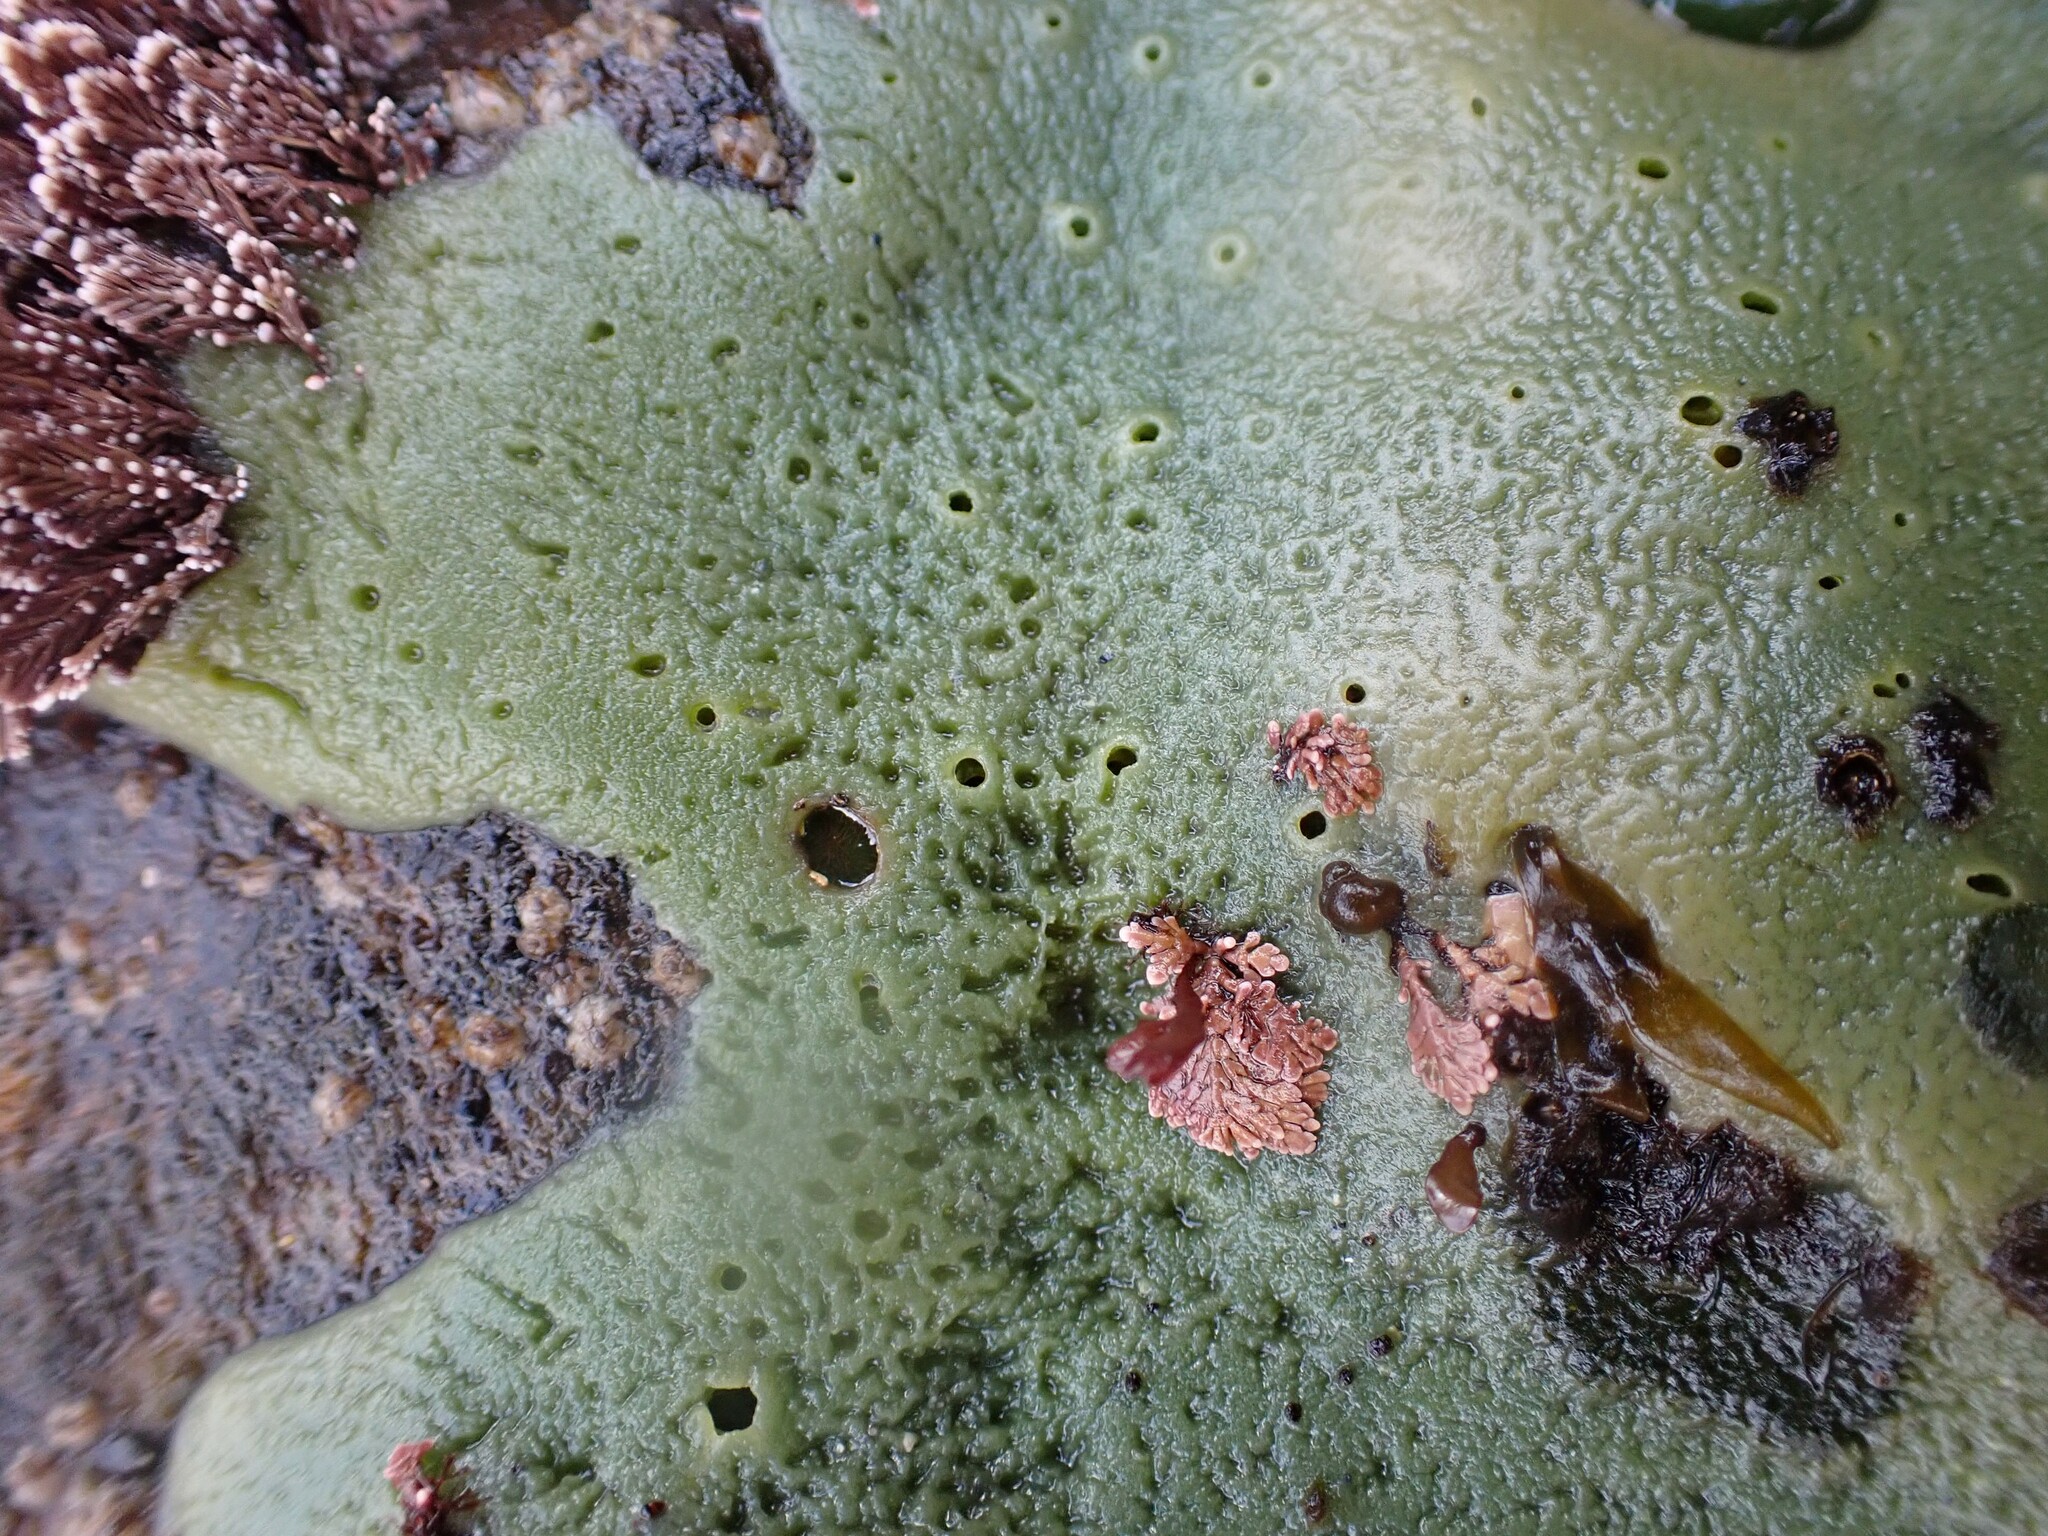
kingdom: Animalia
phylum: Porifera
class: Demospongiae
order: Suberitida
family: Halichondriidae
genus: Halichondria
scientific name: Halichondria panicea
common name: Breadcrumb sponge
